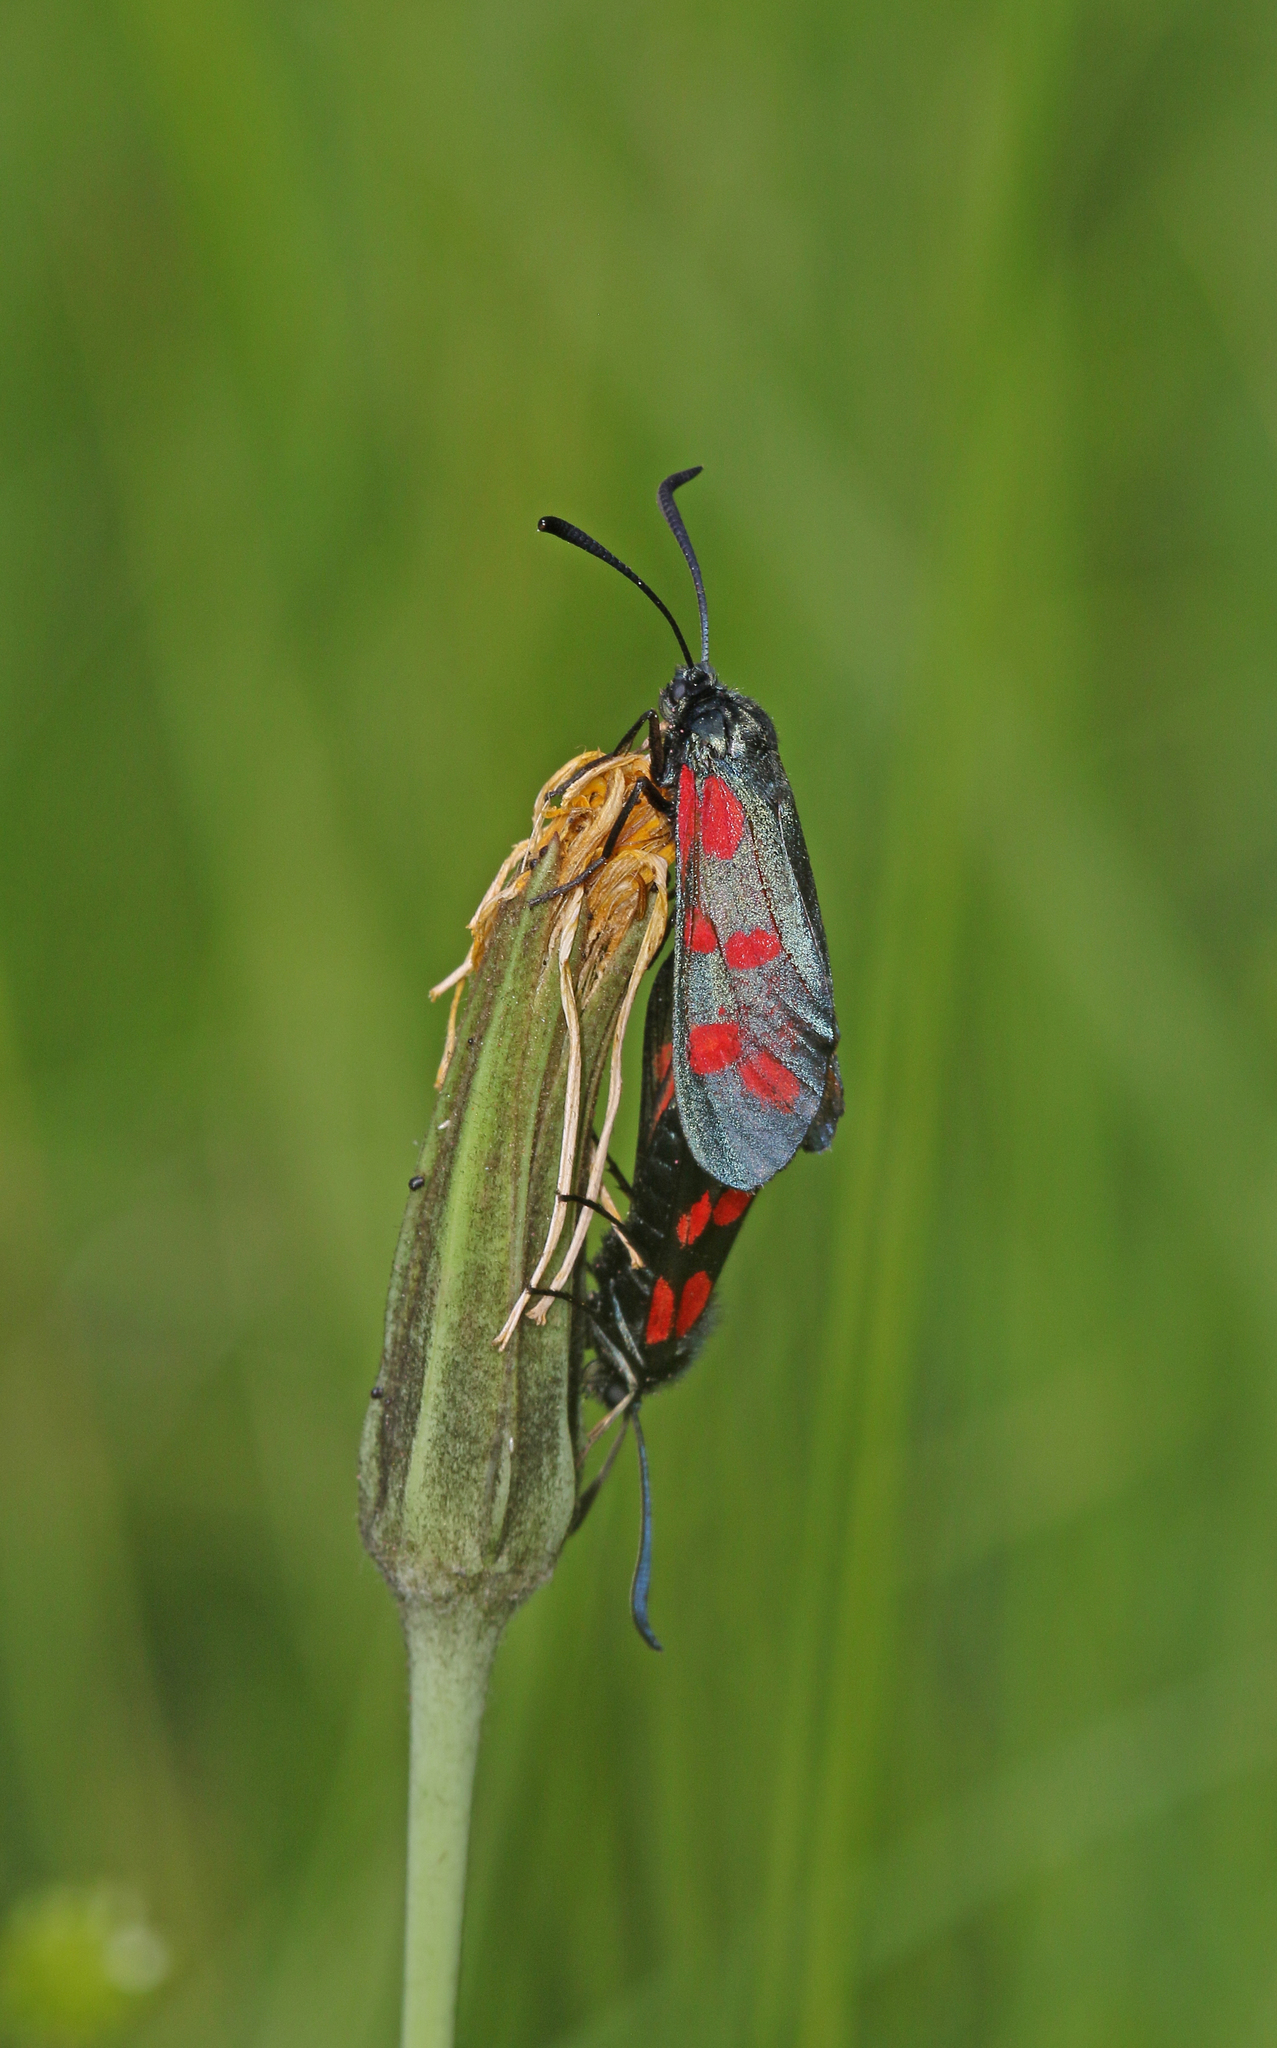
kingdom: Animalia
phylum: Arthropoda
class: Insecta
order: Lepidoptera
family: Zygaenidae
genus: Zygaena
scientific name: Zygaena filipendulae
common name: Six-spot burnet
